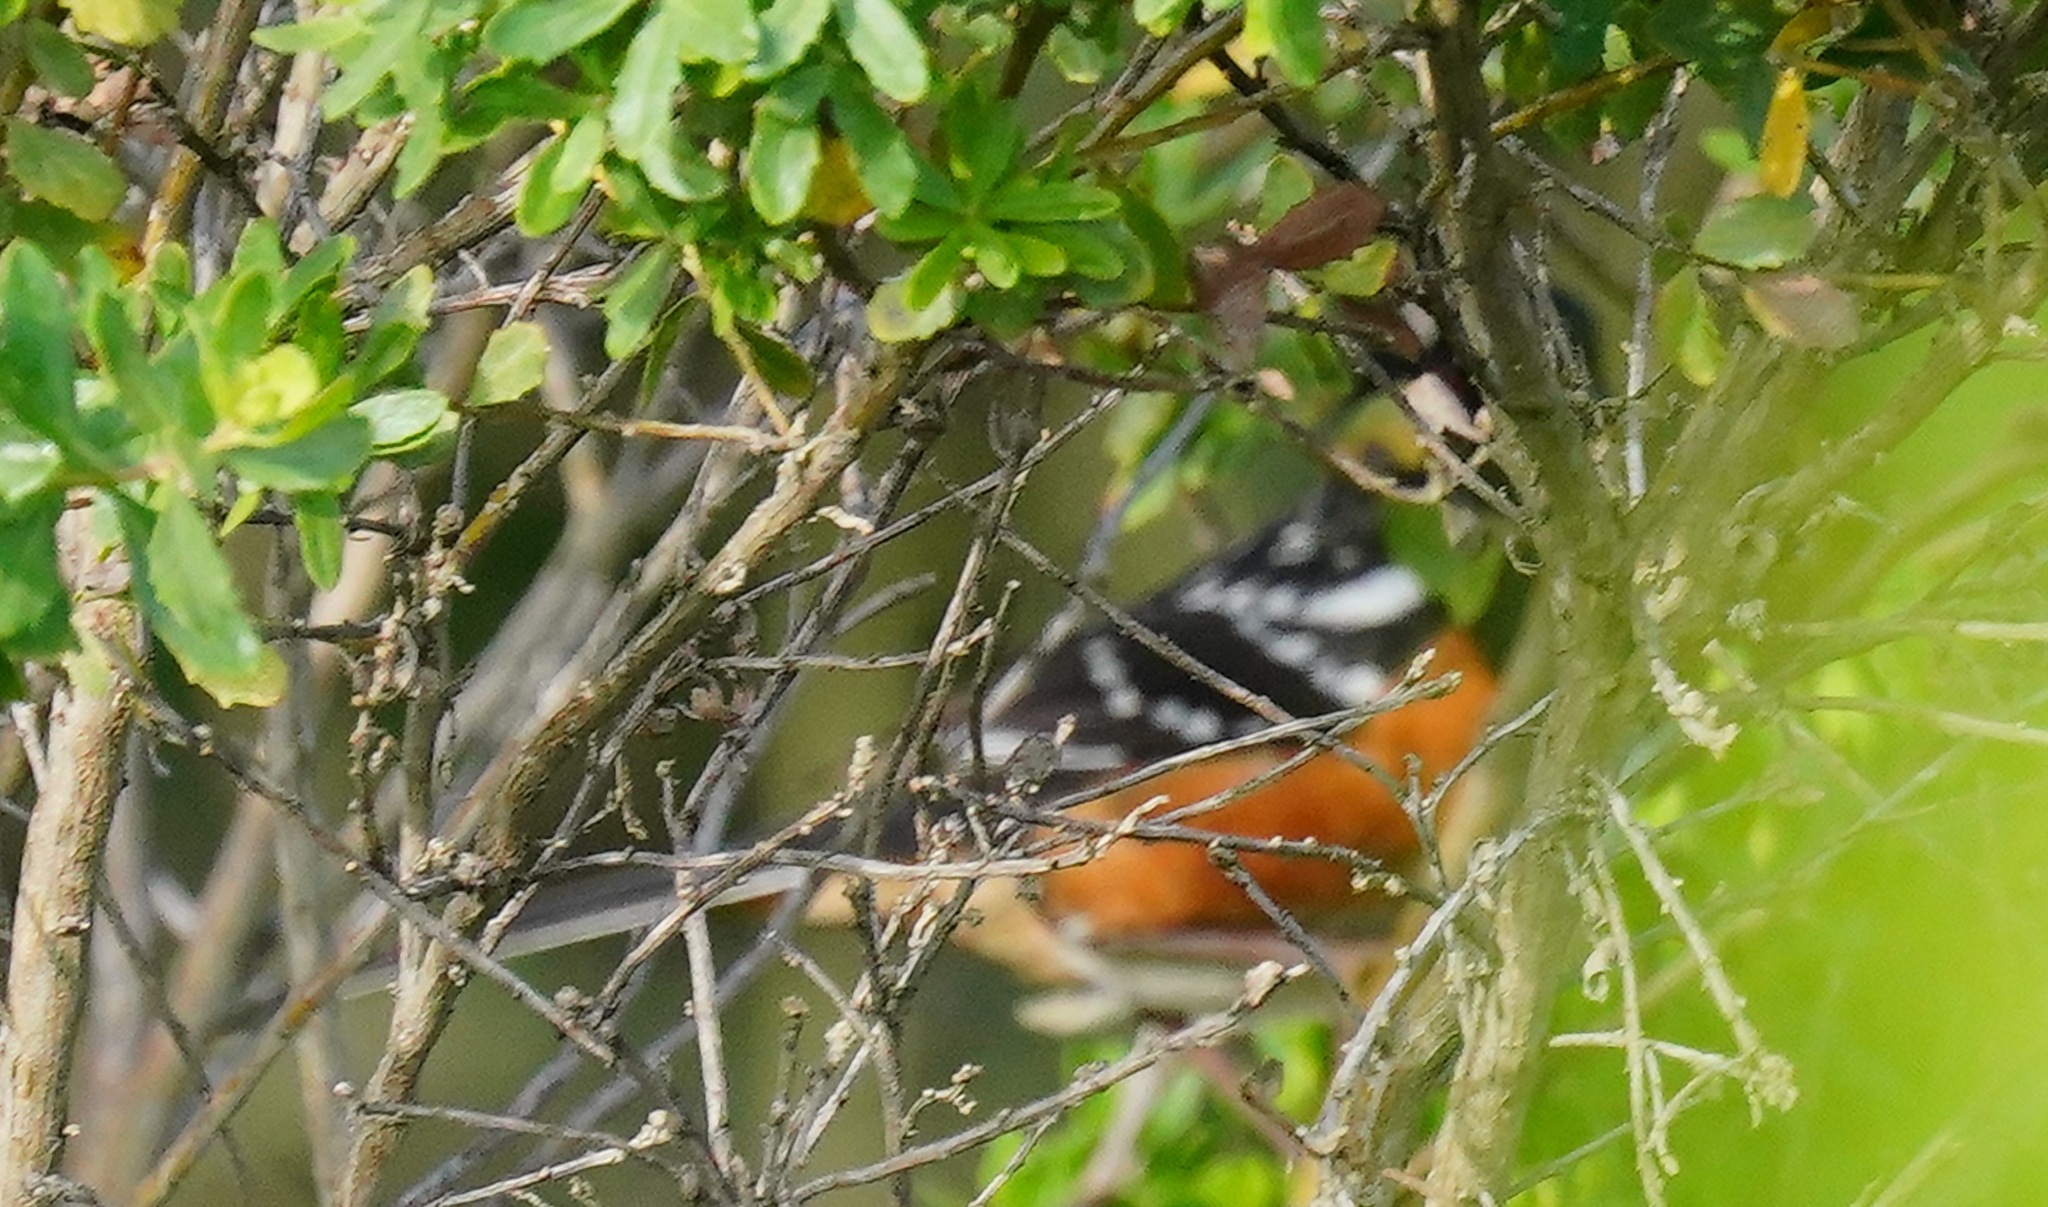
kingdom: Animalia
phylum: Chordata
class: Aves
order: Passeriformes
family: Passerellidae
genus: Pipilo
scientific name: Pipilo maculatus
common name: Spotted towhee
